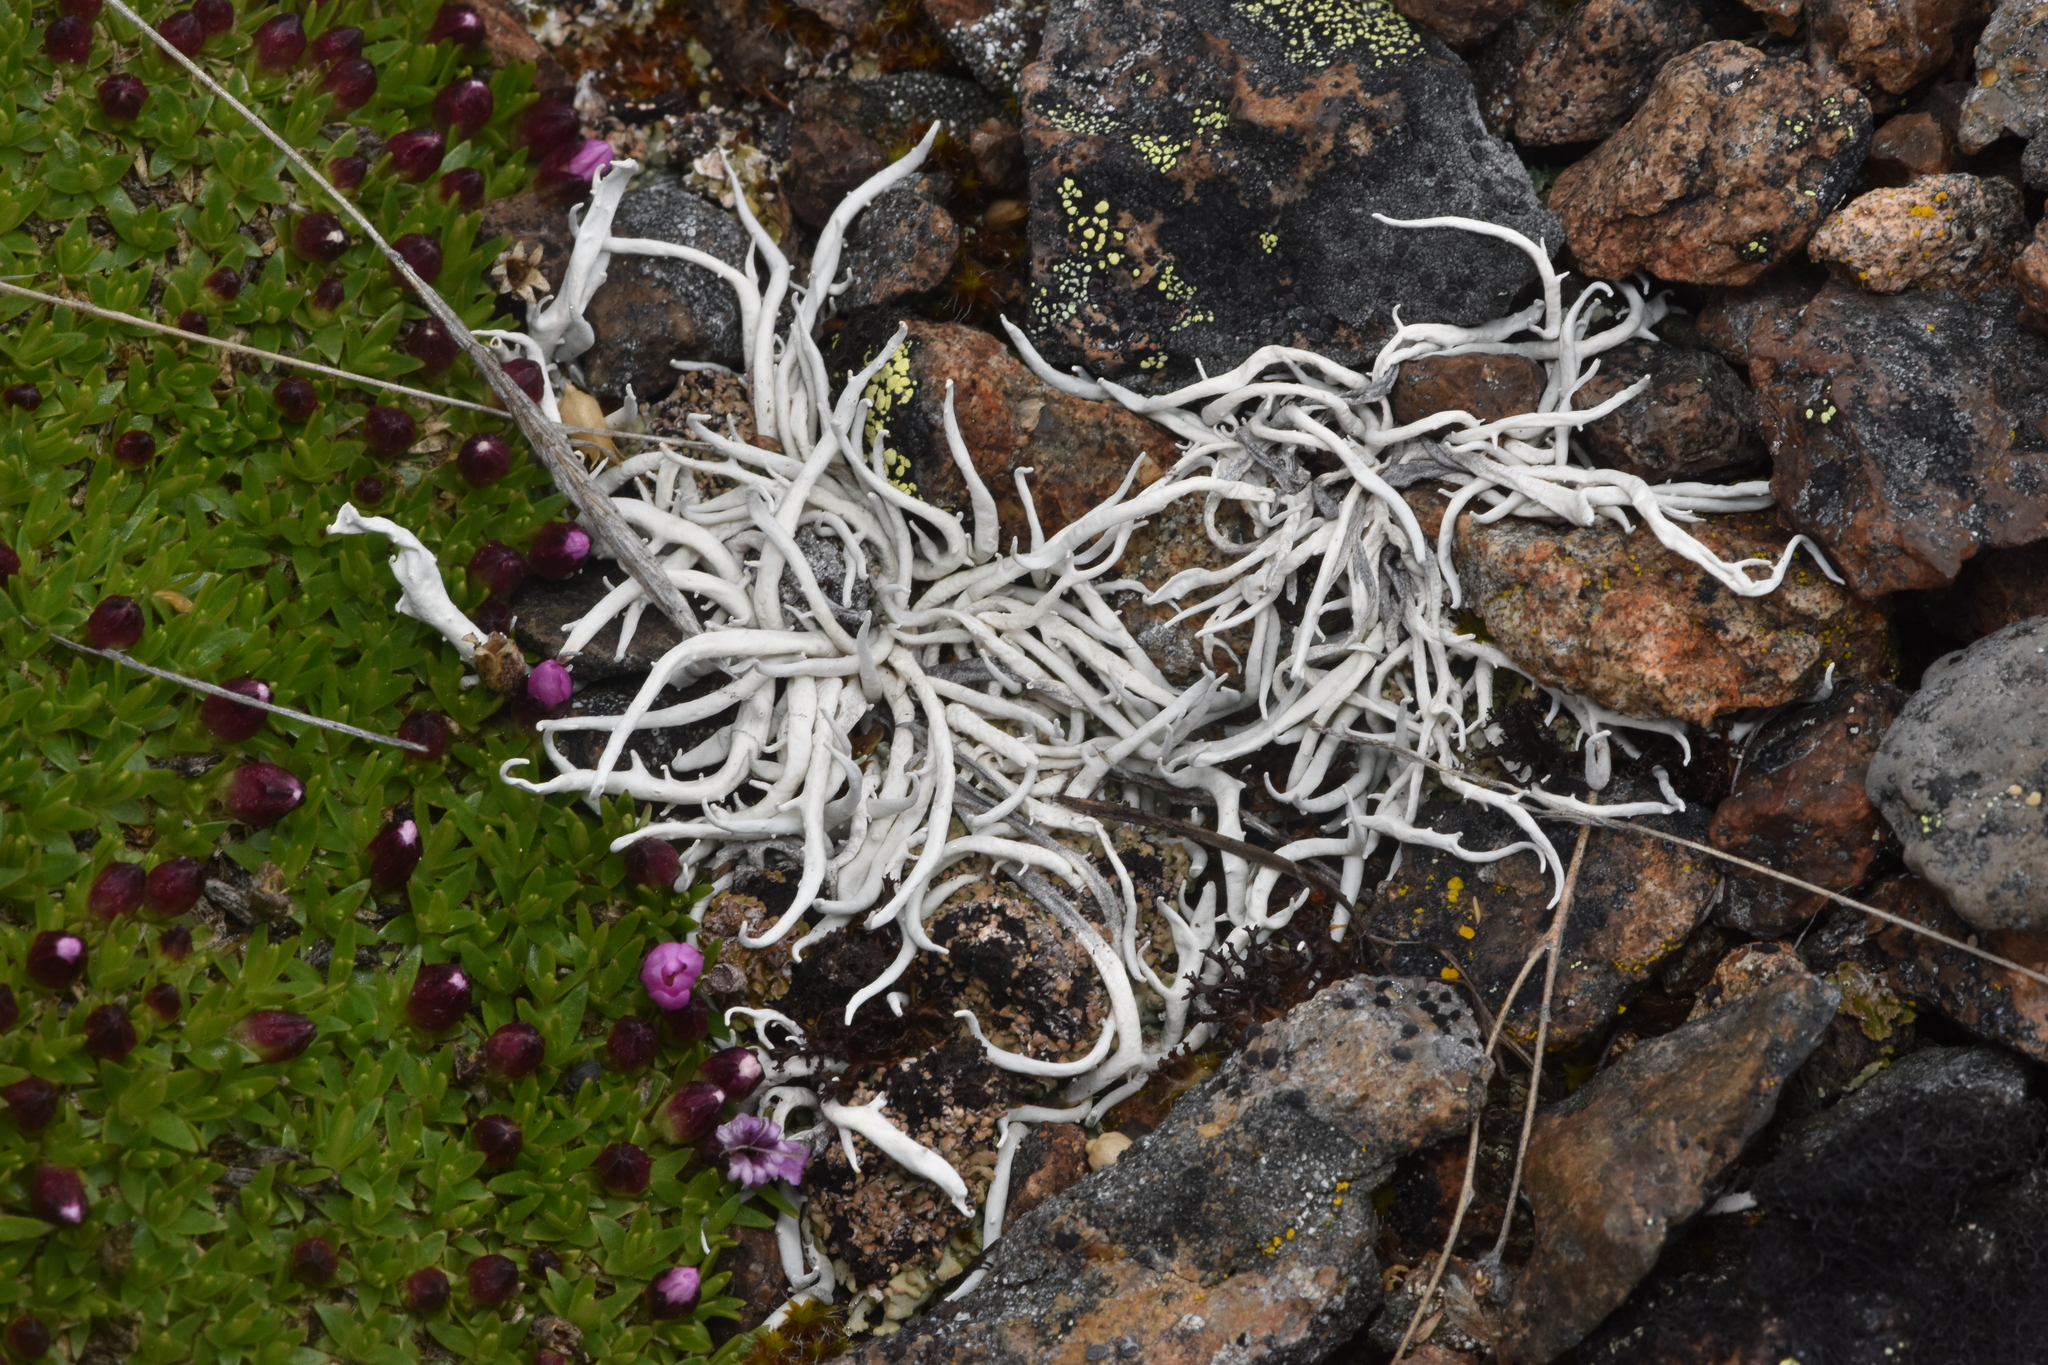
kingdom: Fungi
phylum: Ascomycota
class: Lecanoromycetes
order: Pertusariales
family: Icmadophilaceae
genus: Thamnolia
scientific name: Thamnolia vermicularis
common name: Whiteworm lichen
